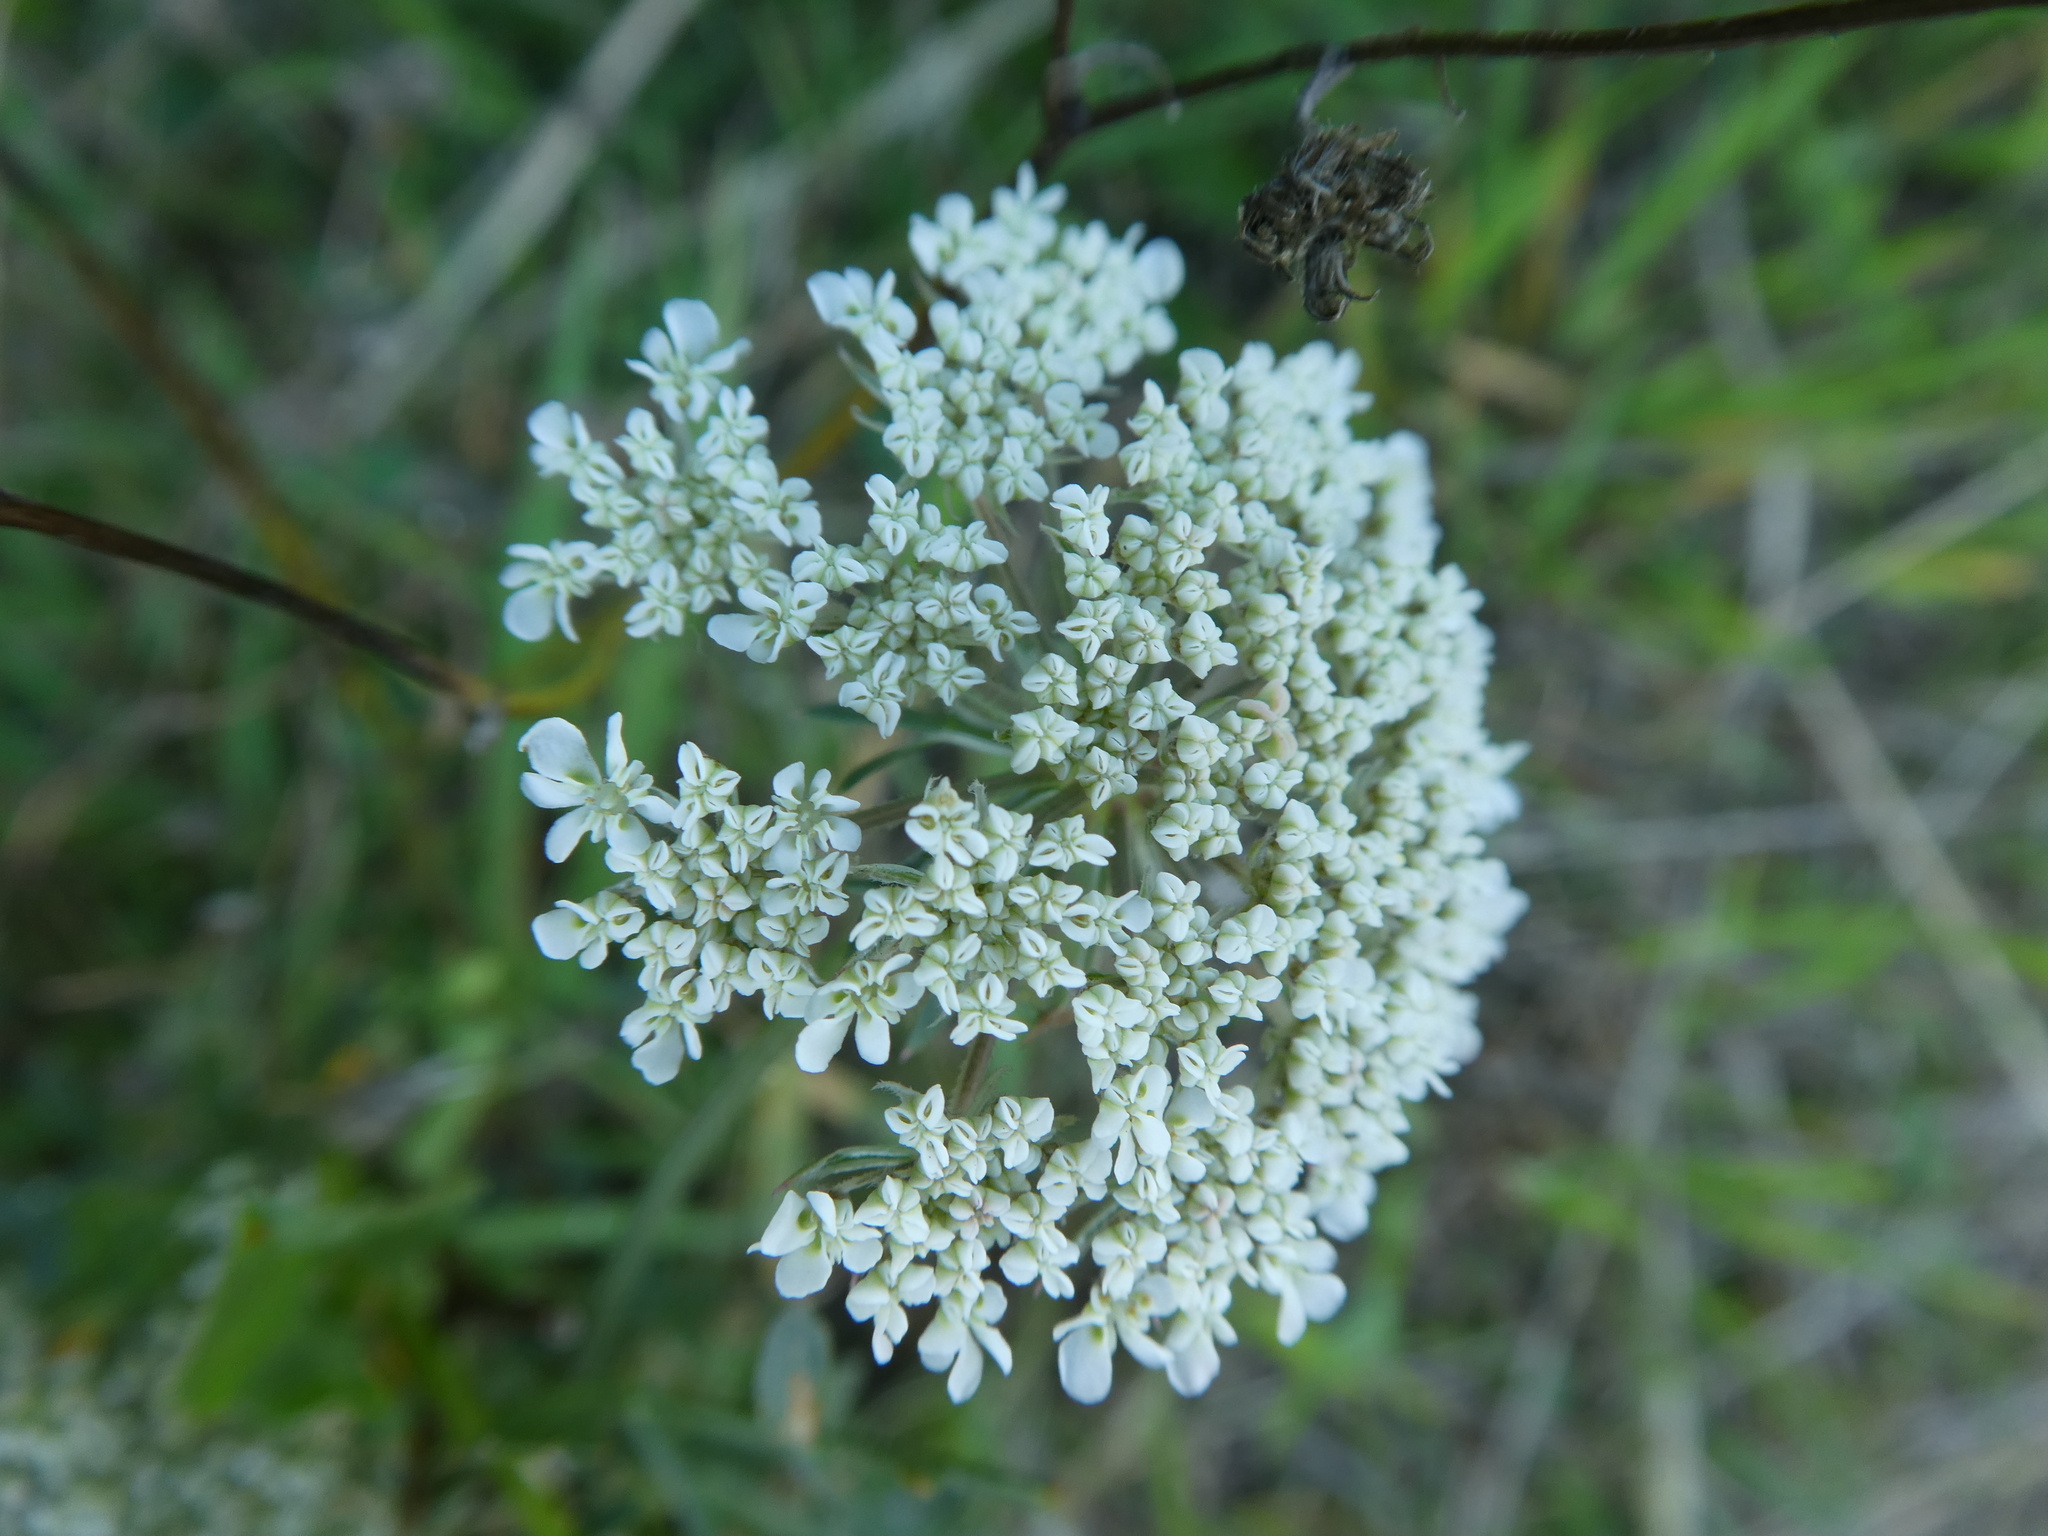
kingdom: Plantae
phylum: Tracheophyta
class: Magnoliopsida
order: Apiales
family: Apiaceae
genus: Daucus
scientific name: Daucus carota
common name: Wild carrot
